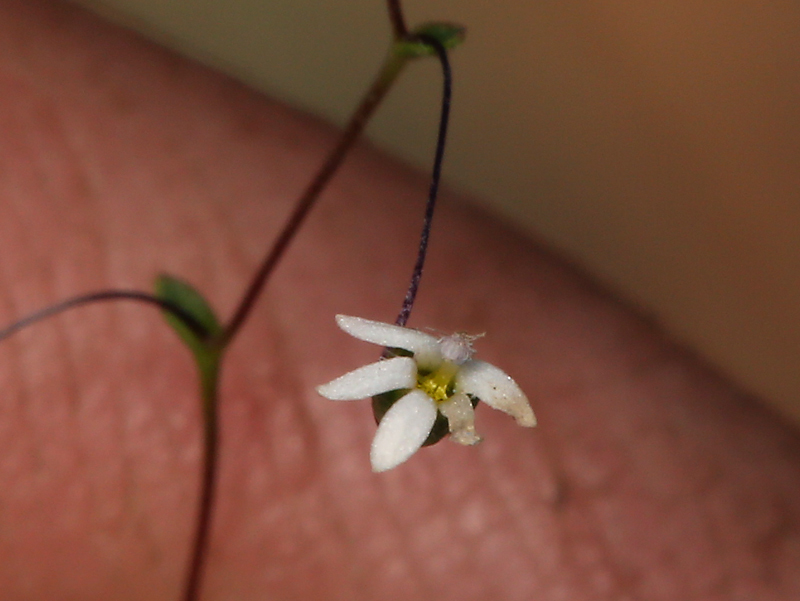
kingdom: Plantae
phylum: Tracheophyta
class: Magnoliopsida
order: Asterales
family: Campanulaceae
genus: Nemacladus
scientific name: Nemacladus sigmoideus
